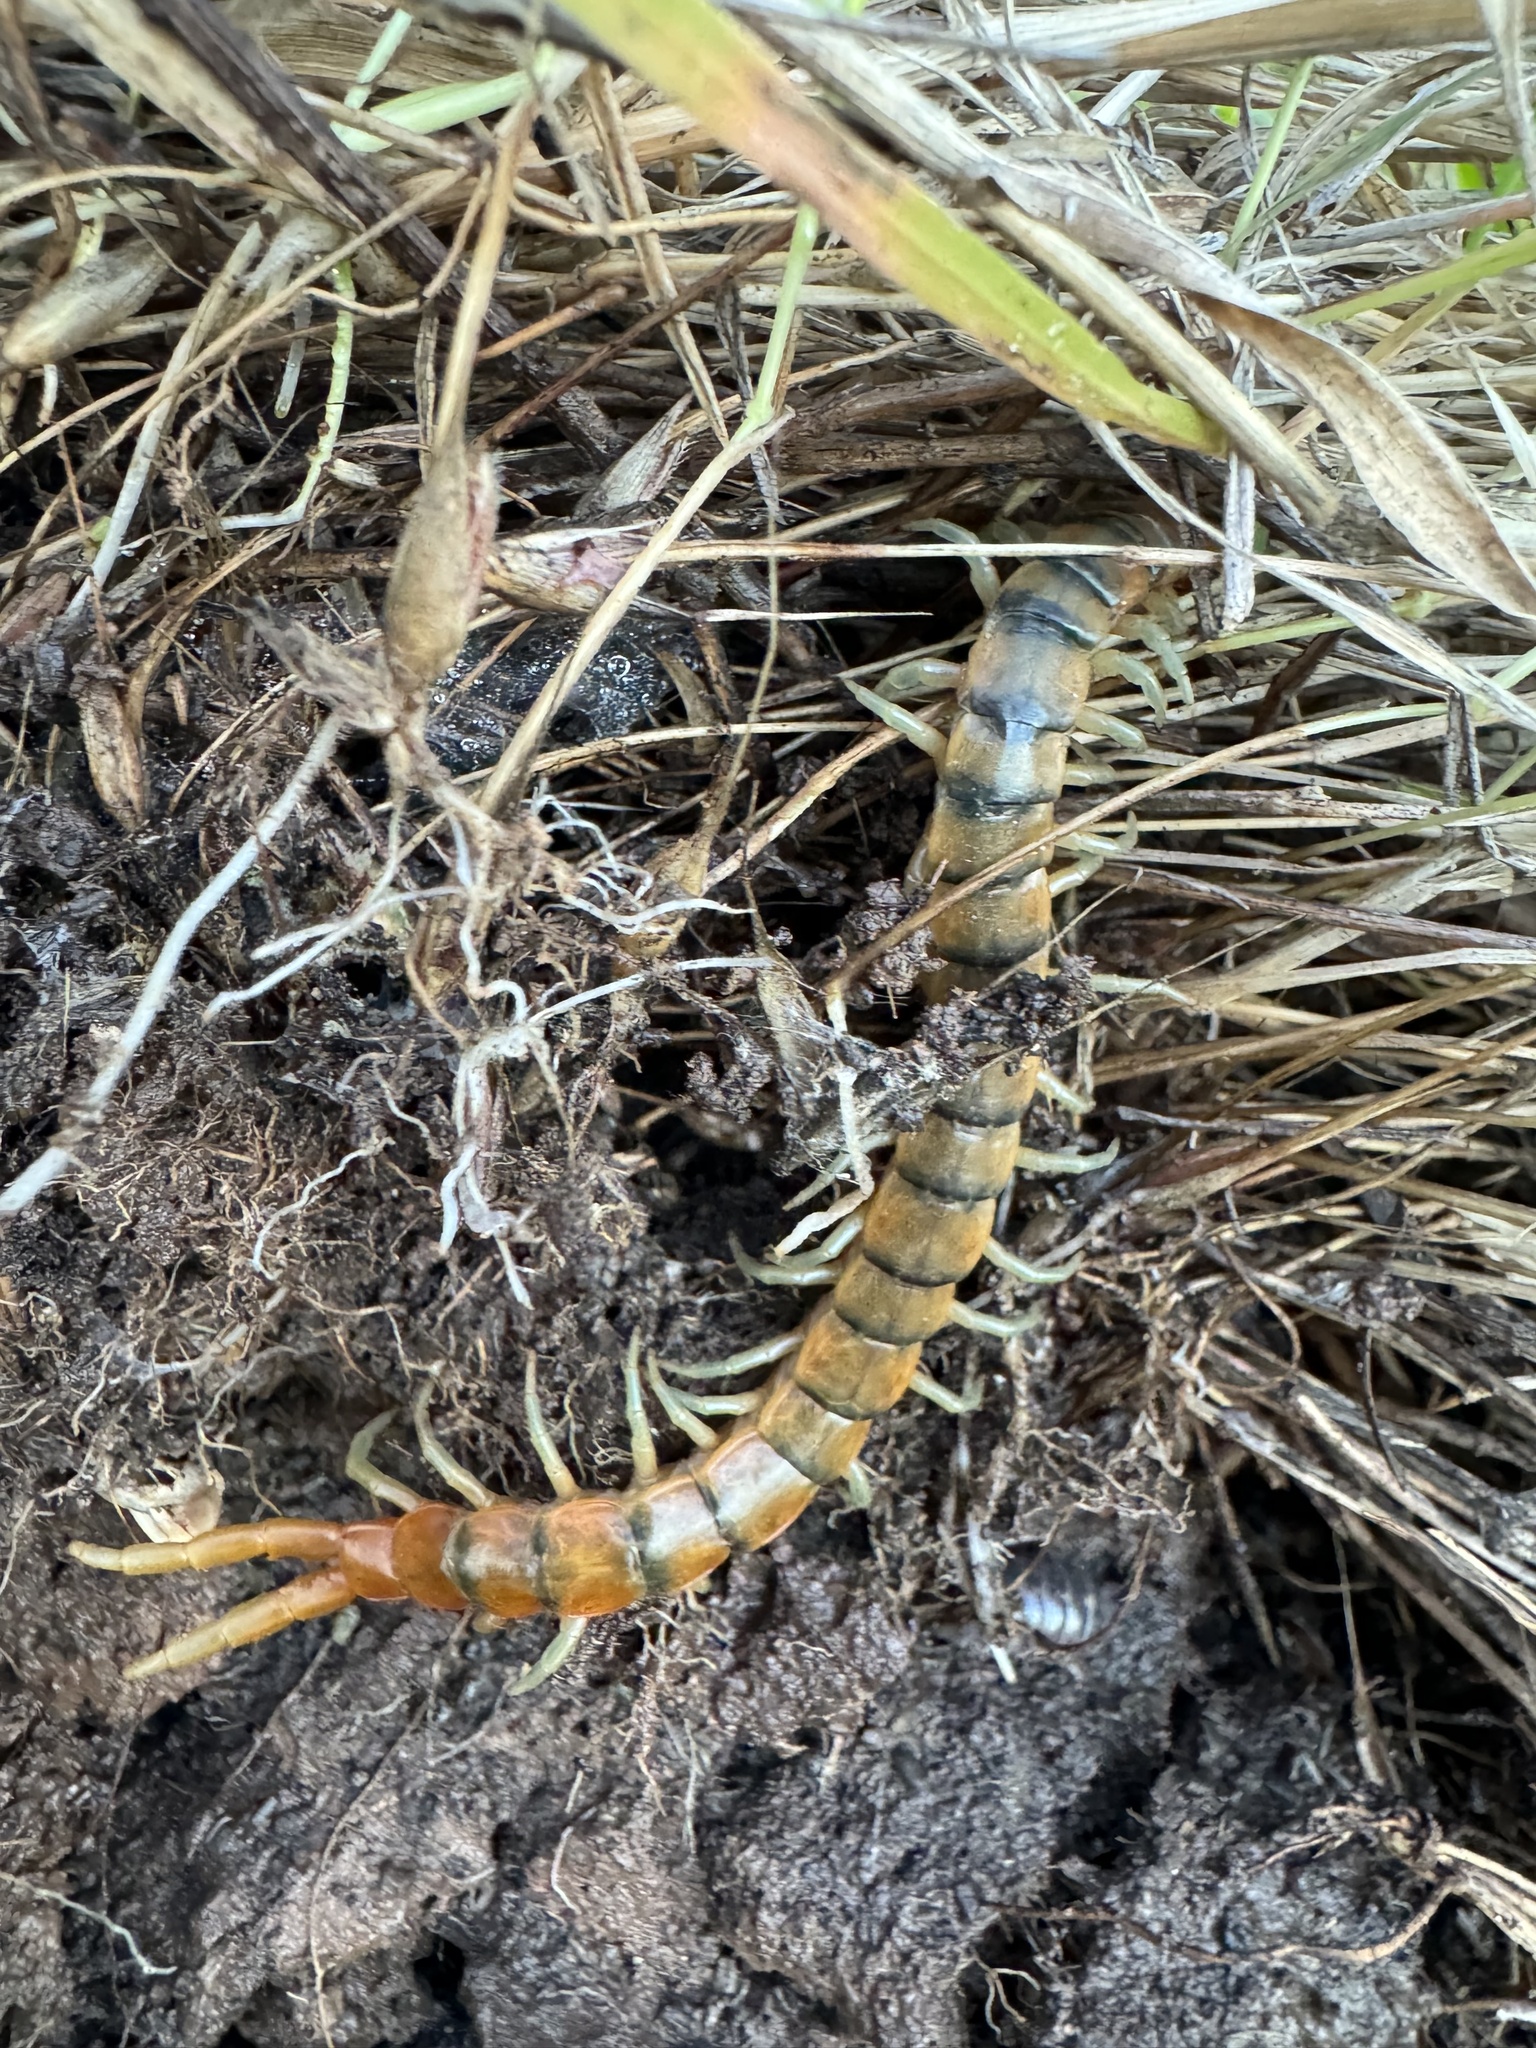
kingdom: Animalia
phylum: Arthropoda
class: Chilopoda
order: Scolopendromorpha
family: Scolopendridae
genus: Scolopendra
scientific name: Scolopendra polymorpha
